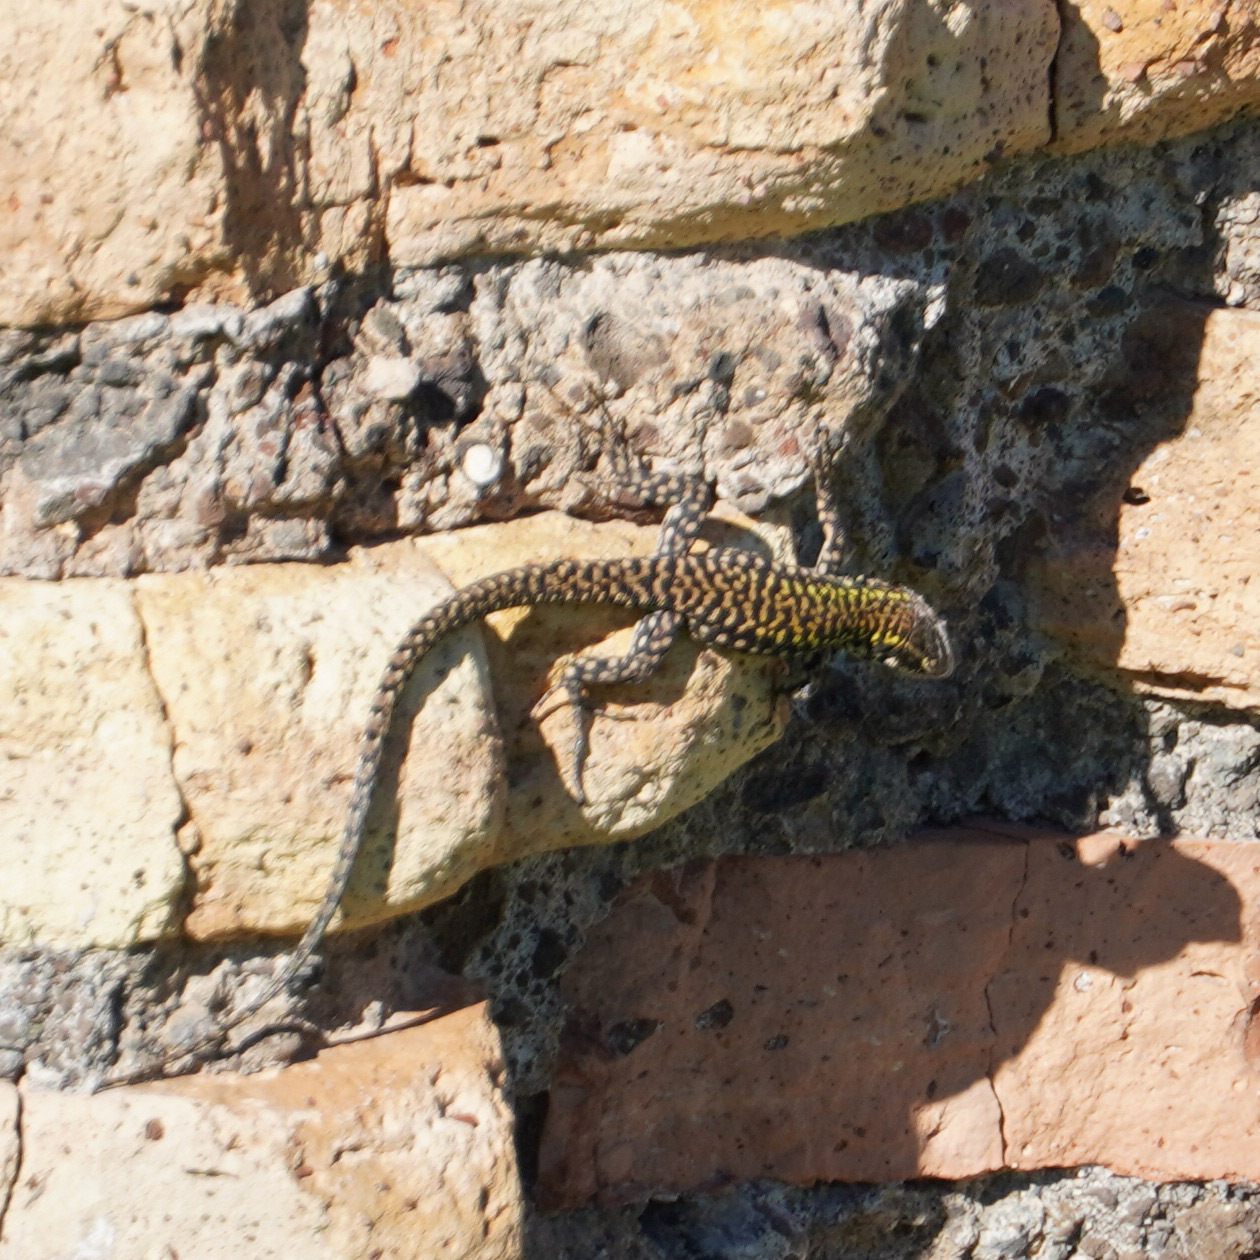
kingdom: Animalia
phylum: Chordata
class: Squamata
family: Lacertidae
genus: Podarcis
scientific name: Podarcis muralis
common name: Common wall lizard
